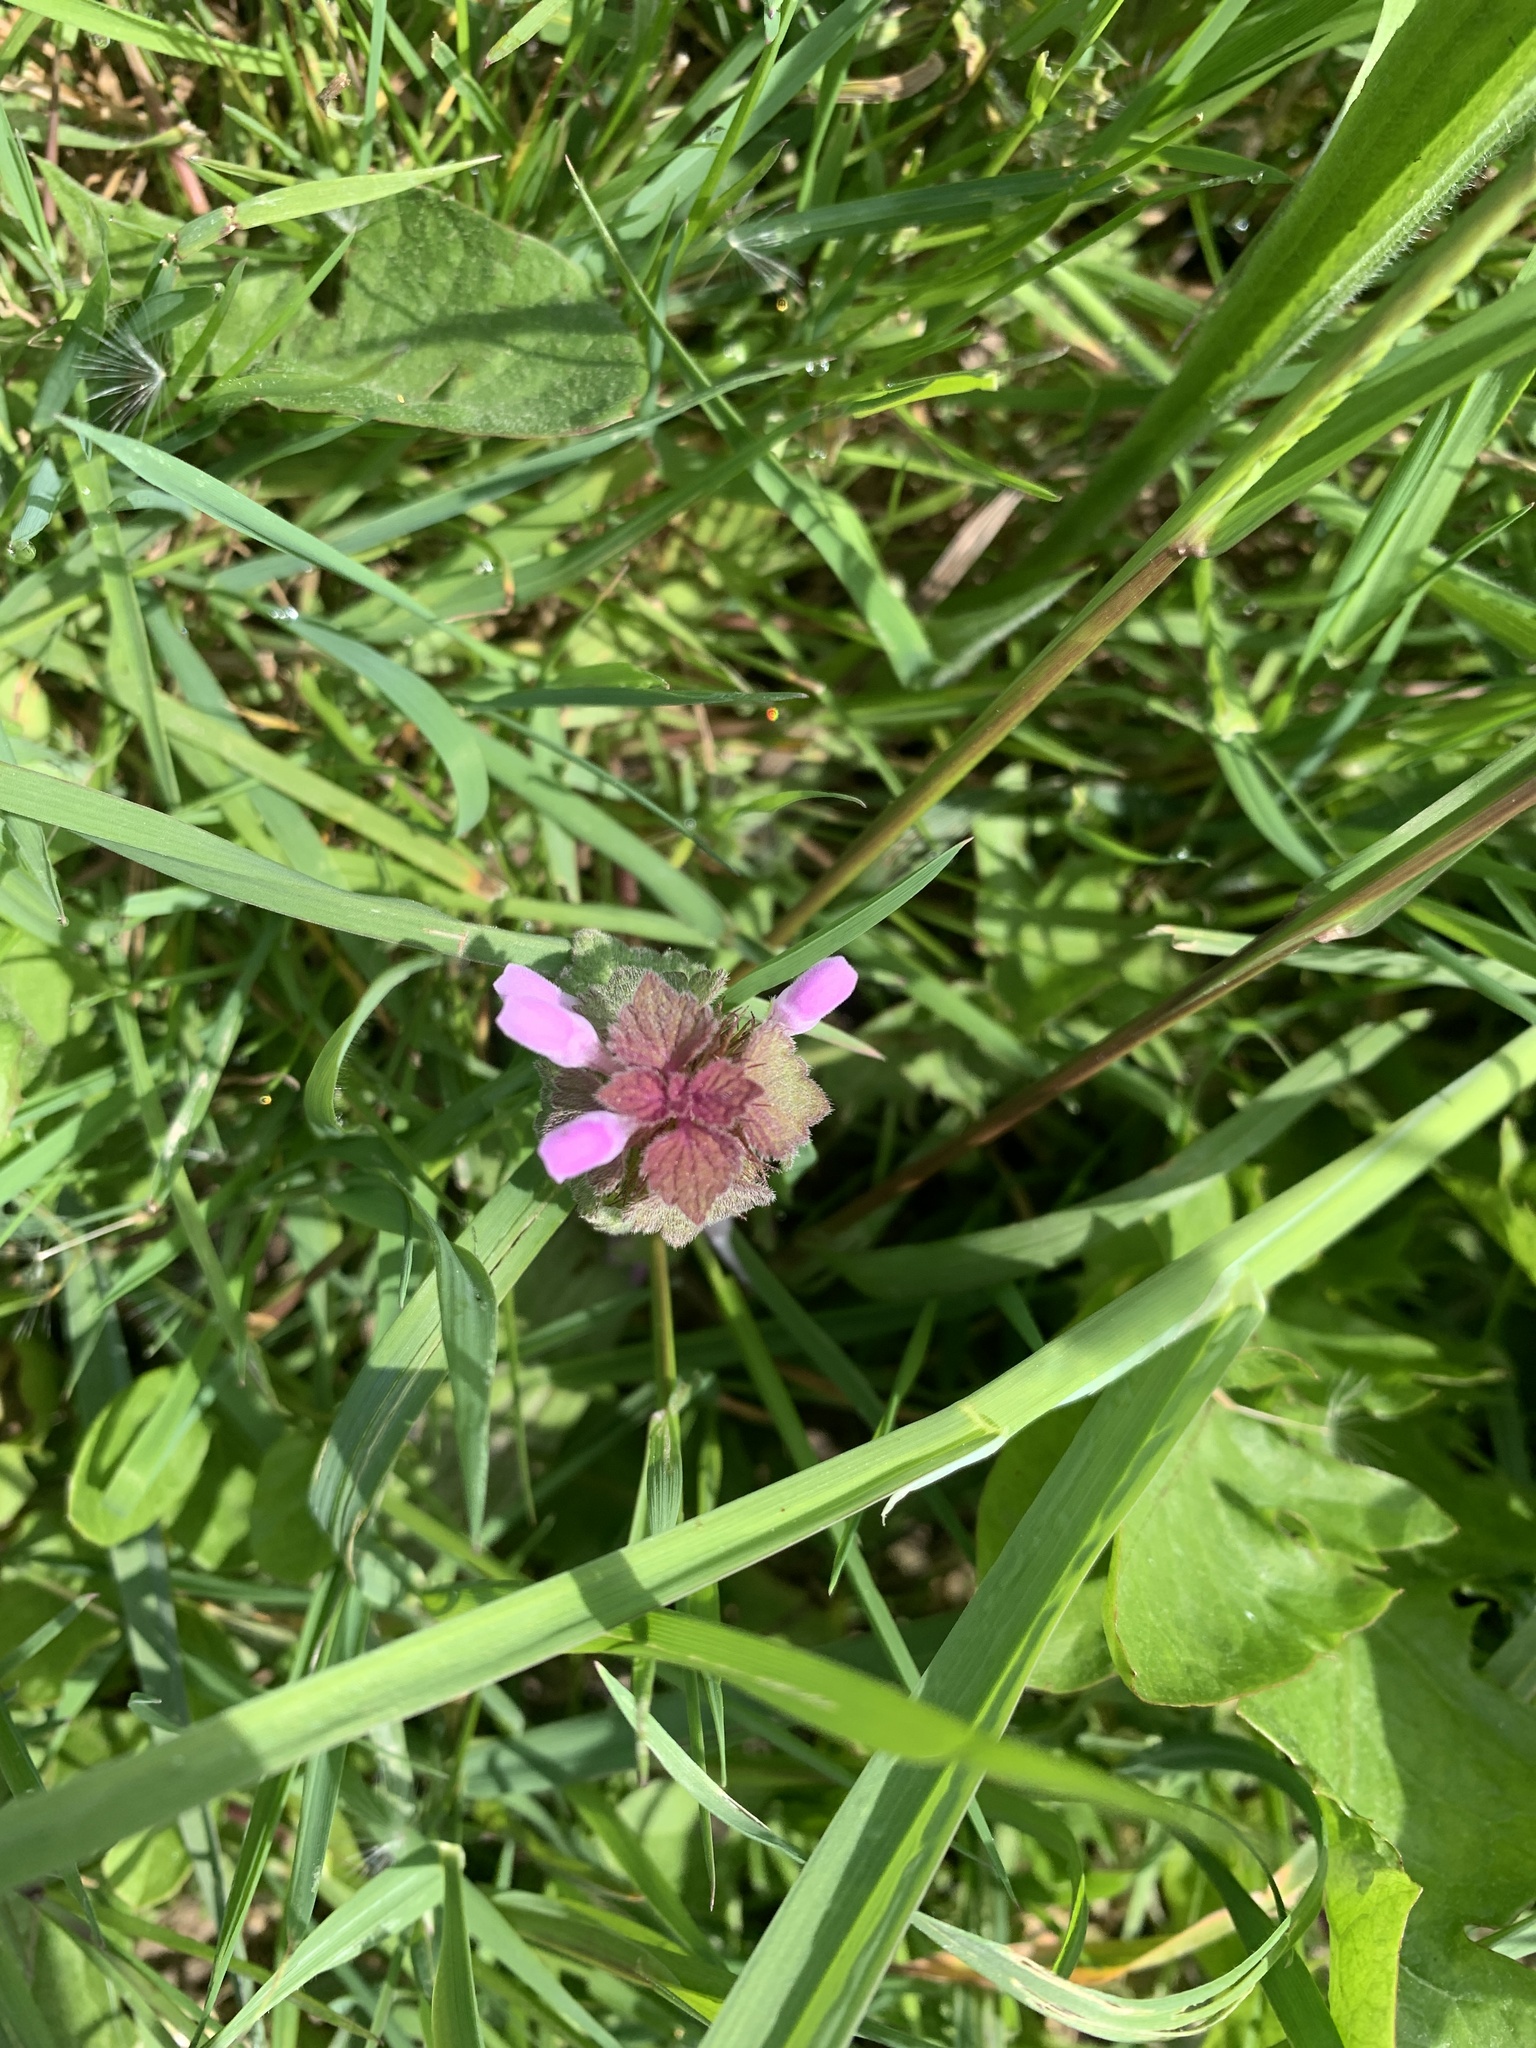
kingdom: Plantae
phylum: Tracheophyta
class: Magnoliopsida
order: Lamiales
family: Lamiaceae
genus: Lamium
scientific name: Lamium purpureum
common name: Red dead-nettle
